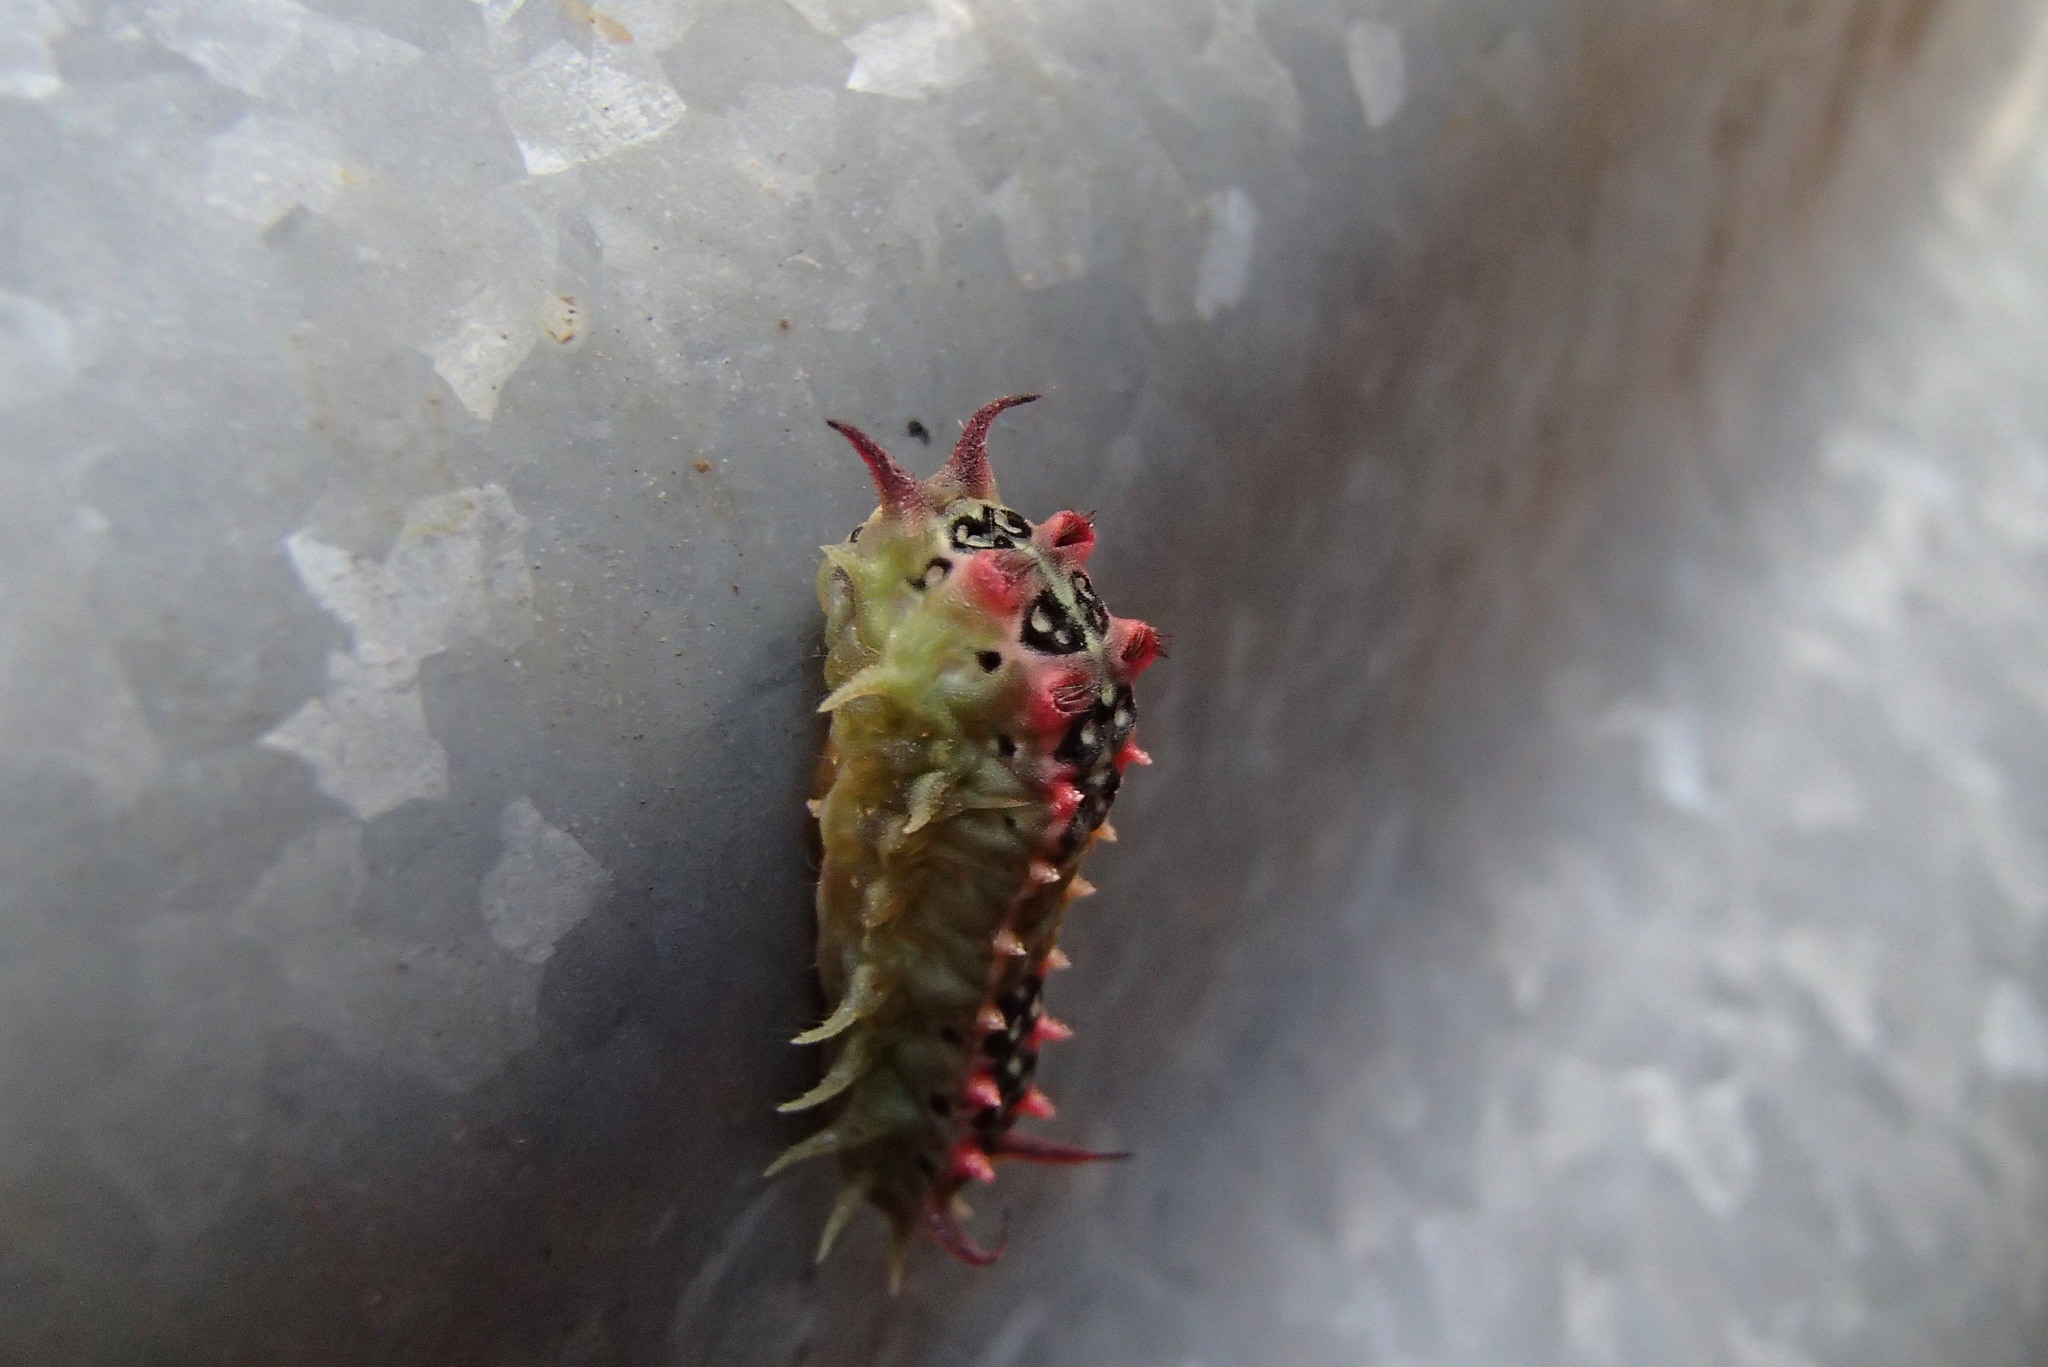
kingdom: Animalia
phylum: Arthropoda
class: Insecta
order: Lepidoptera
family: Limacodidae
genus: Doratifera
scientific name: Doratifera quadriguttata
